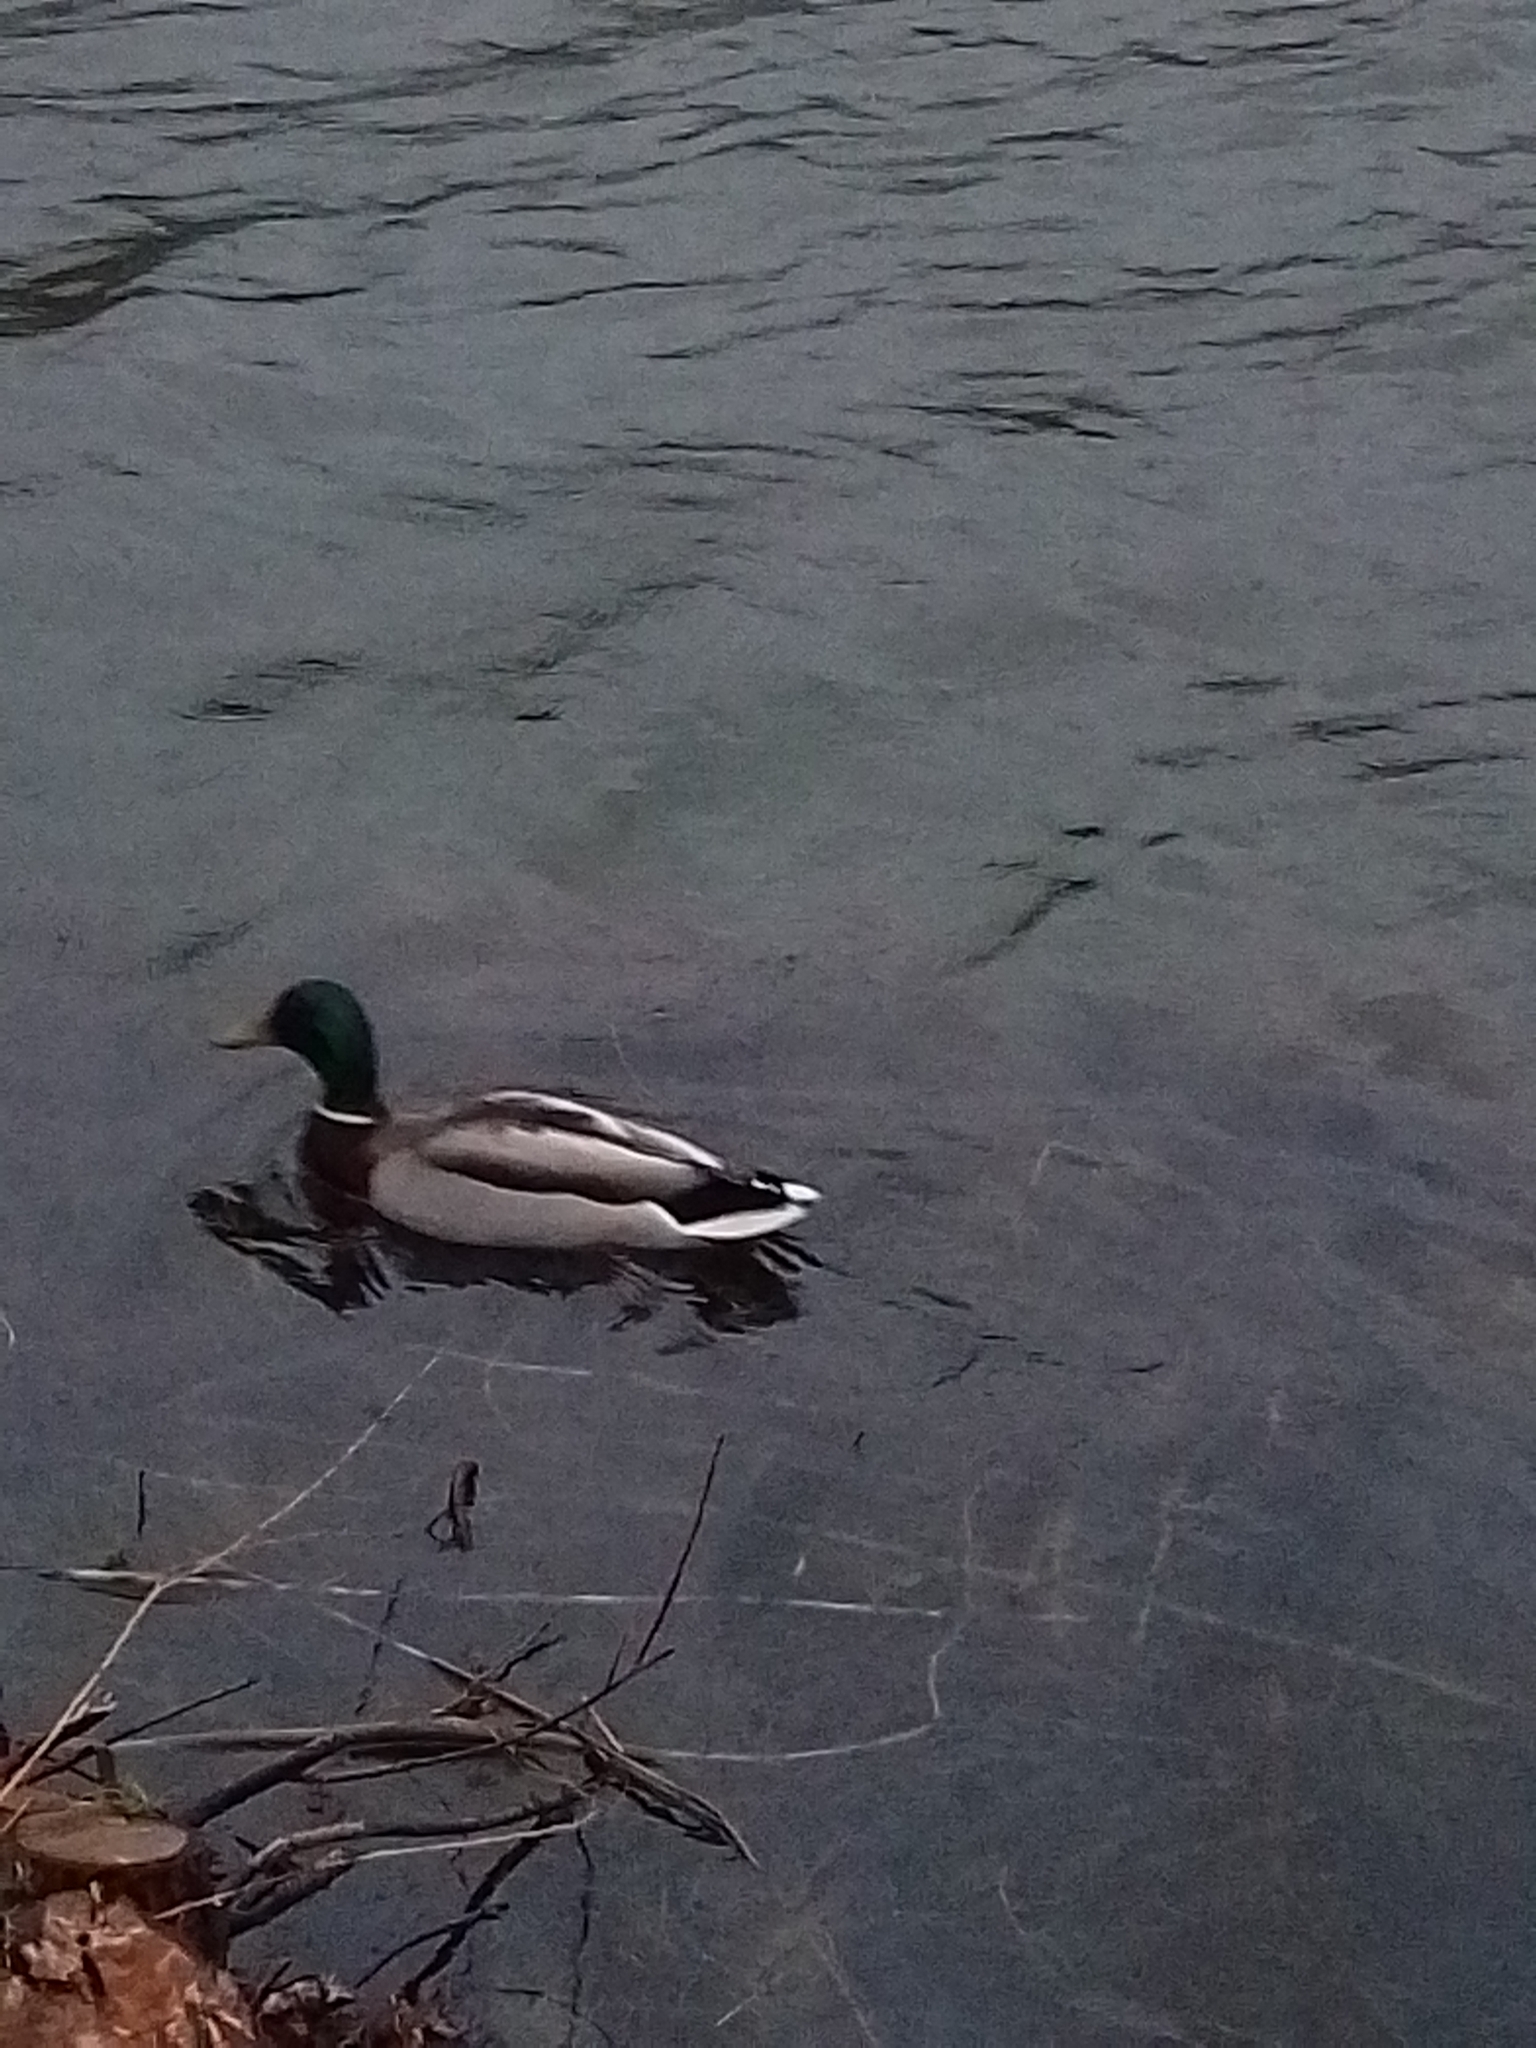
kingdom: Animalia
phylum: Chordata
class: Aves
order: Anseriformes
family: Anatidae
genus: Anas
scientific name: Anas platyrhynchos
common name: Mallard
